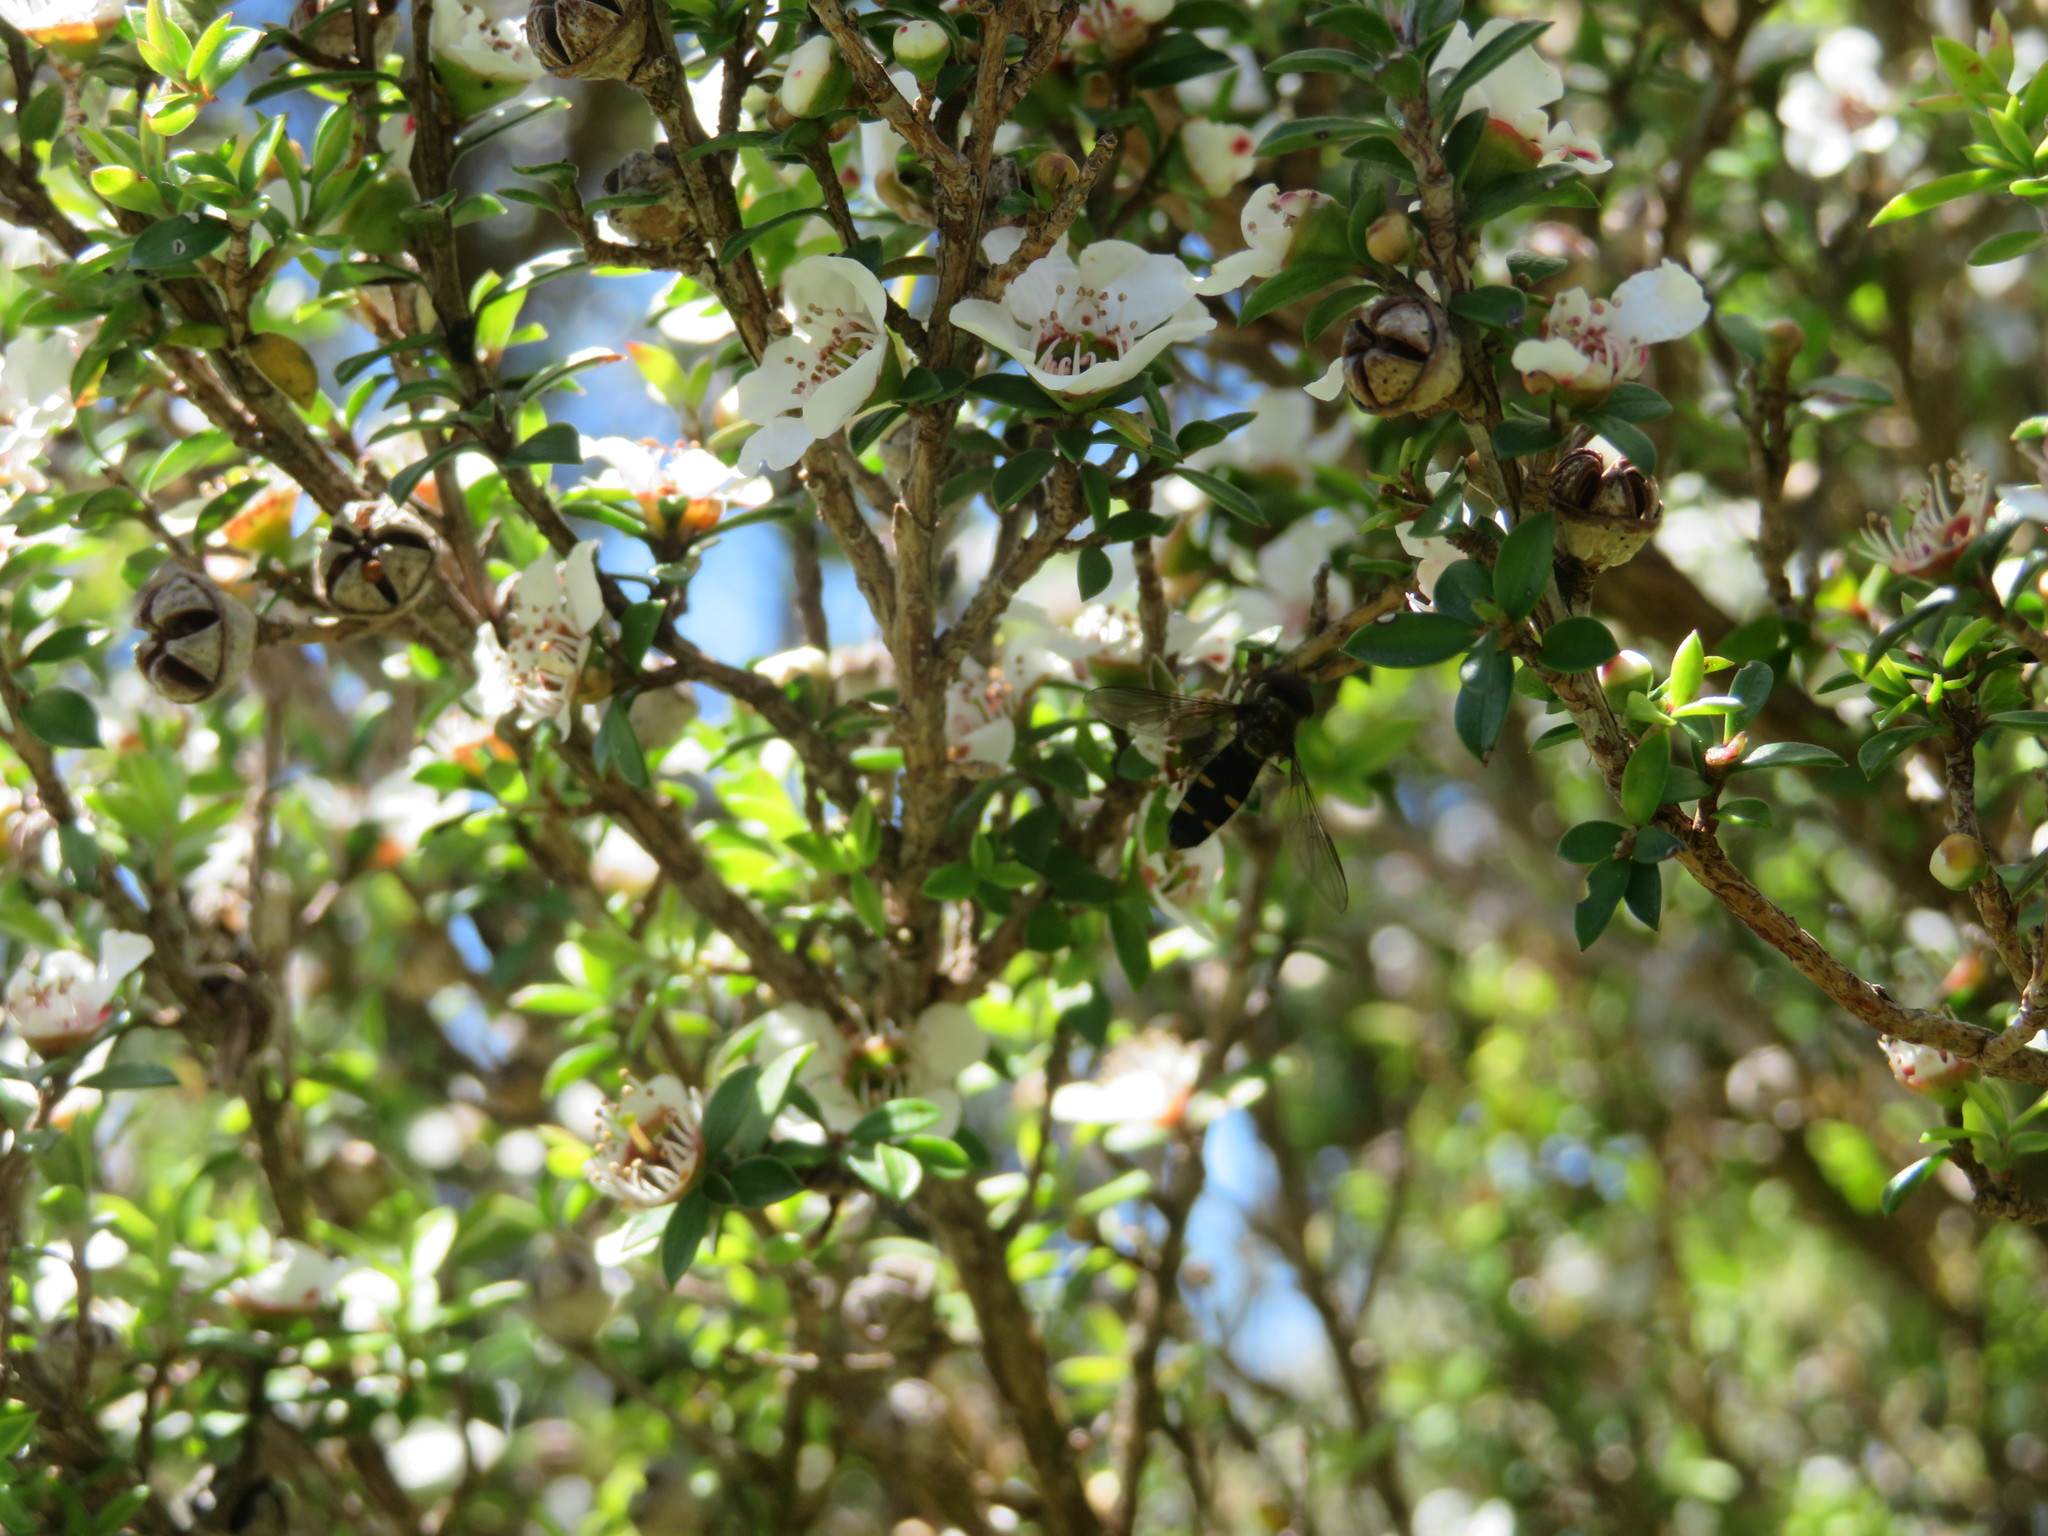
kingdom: Animalia
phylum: Arthropoda
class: Insecta
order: Diptera
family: Syrphidae
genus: Melangyna
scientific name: Melangyna novaezelandiae
